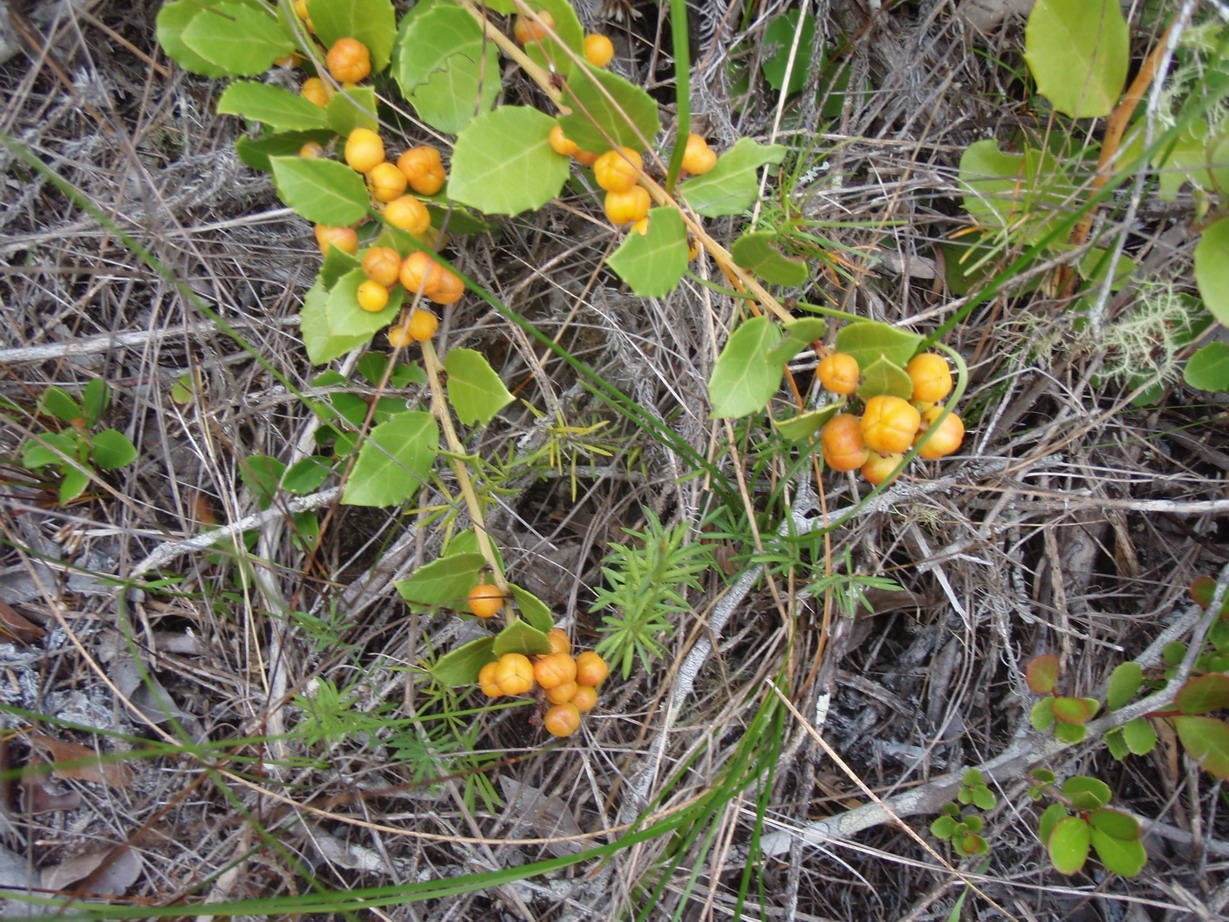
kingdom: Plantae
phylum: Tracheophyta
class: Magnoliopsida
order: Celastrales
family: Celastraceae
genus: Gymnosporia
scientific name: Gymnosporia procumbens
